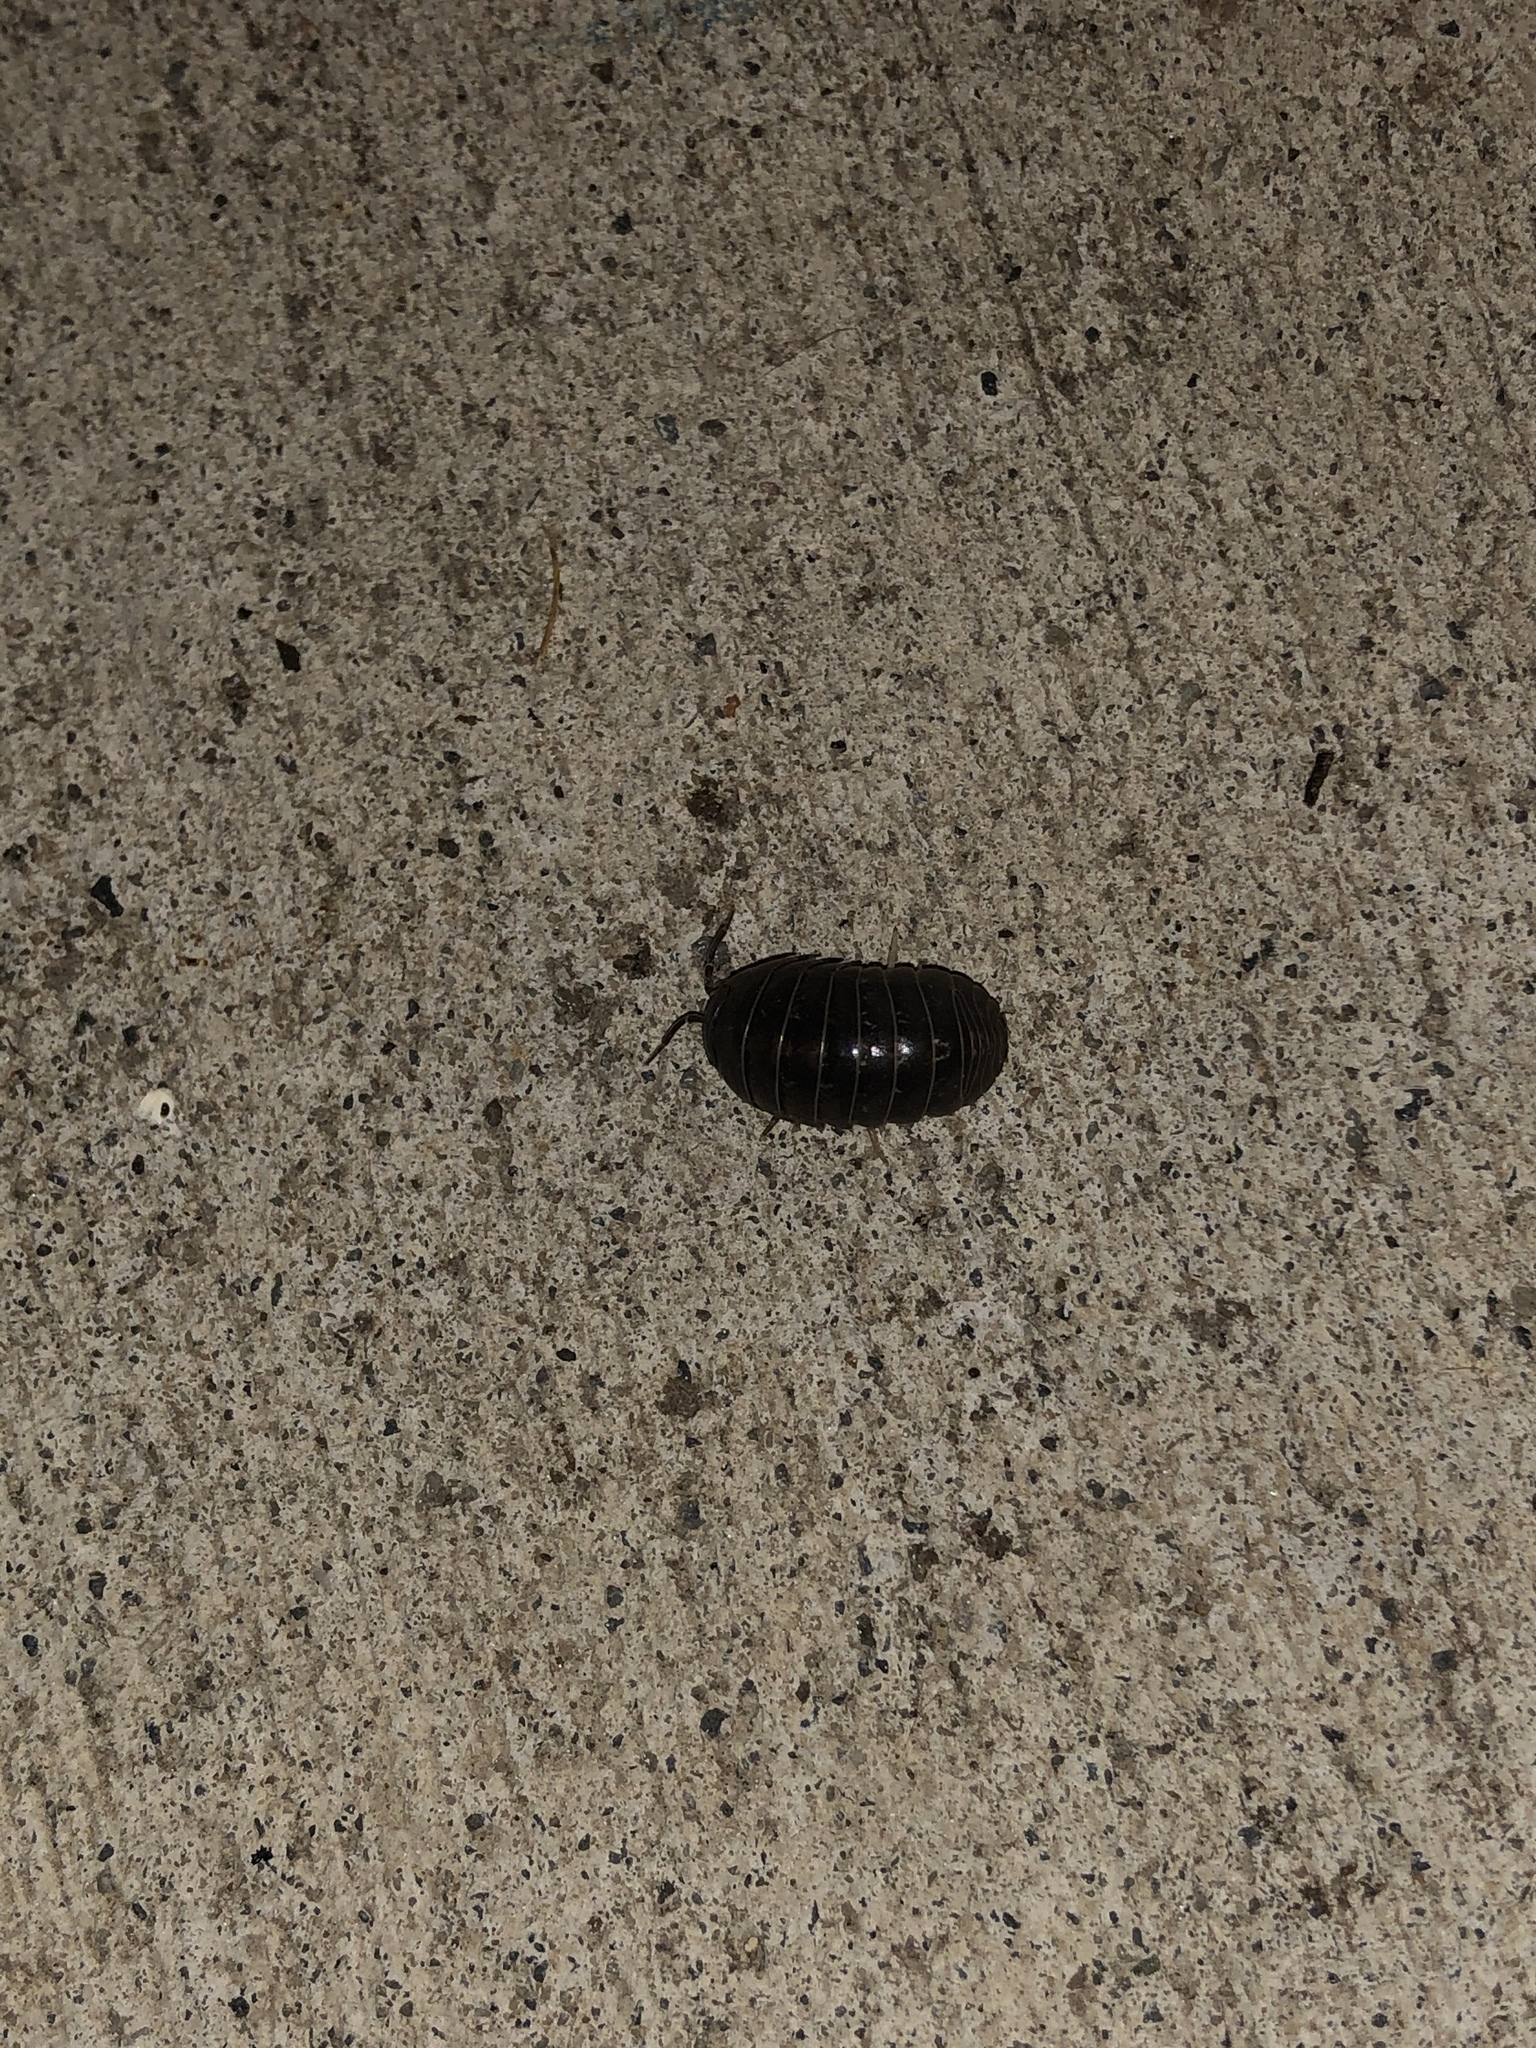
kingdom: Animalia
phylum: Arthropoda
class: Malacostraca
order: Isopoda
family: Armadillidiidae
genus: Armadillidium
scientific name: Armadillidium vulgare
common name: Common pill woodlouse
